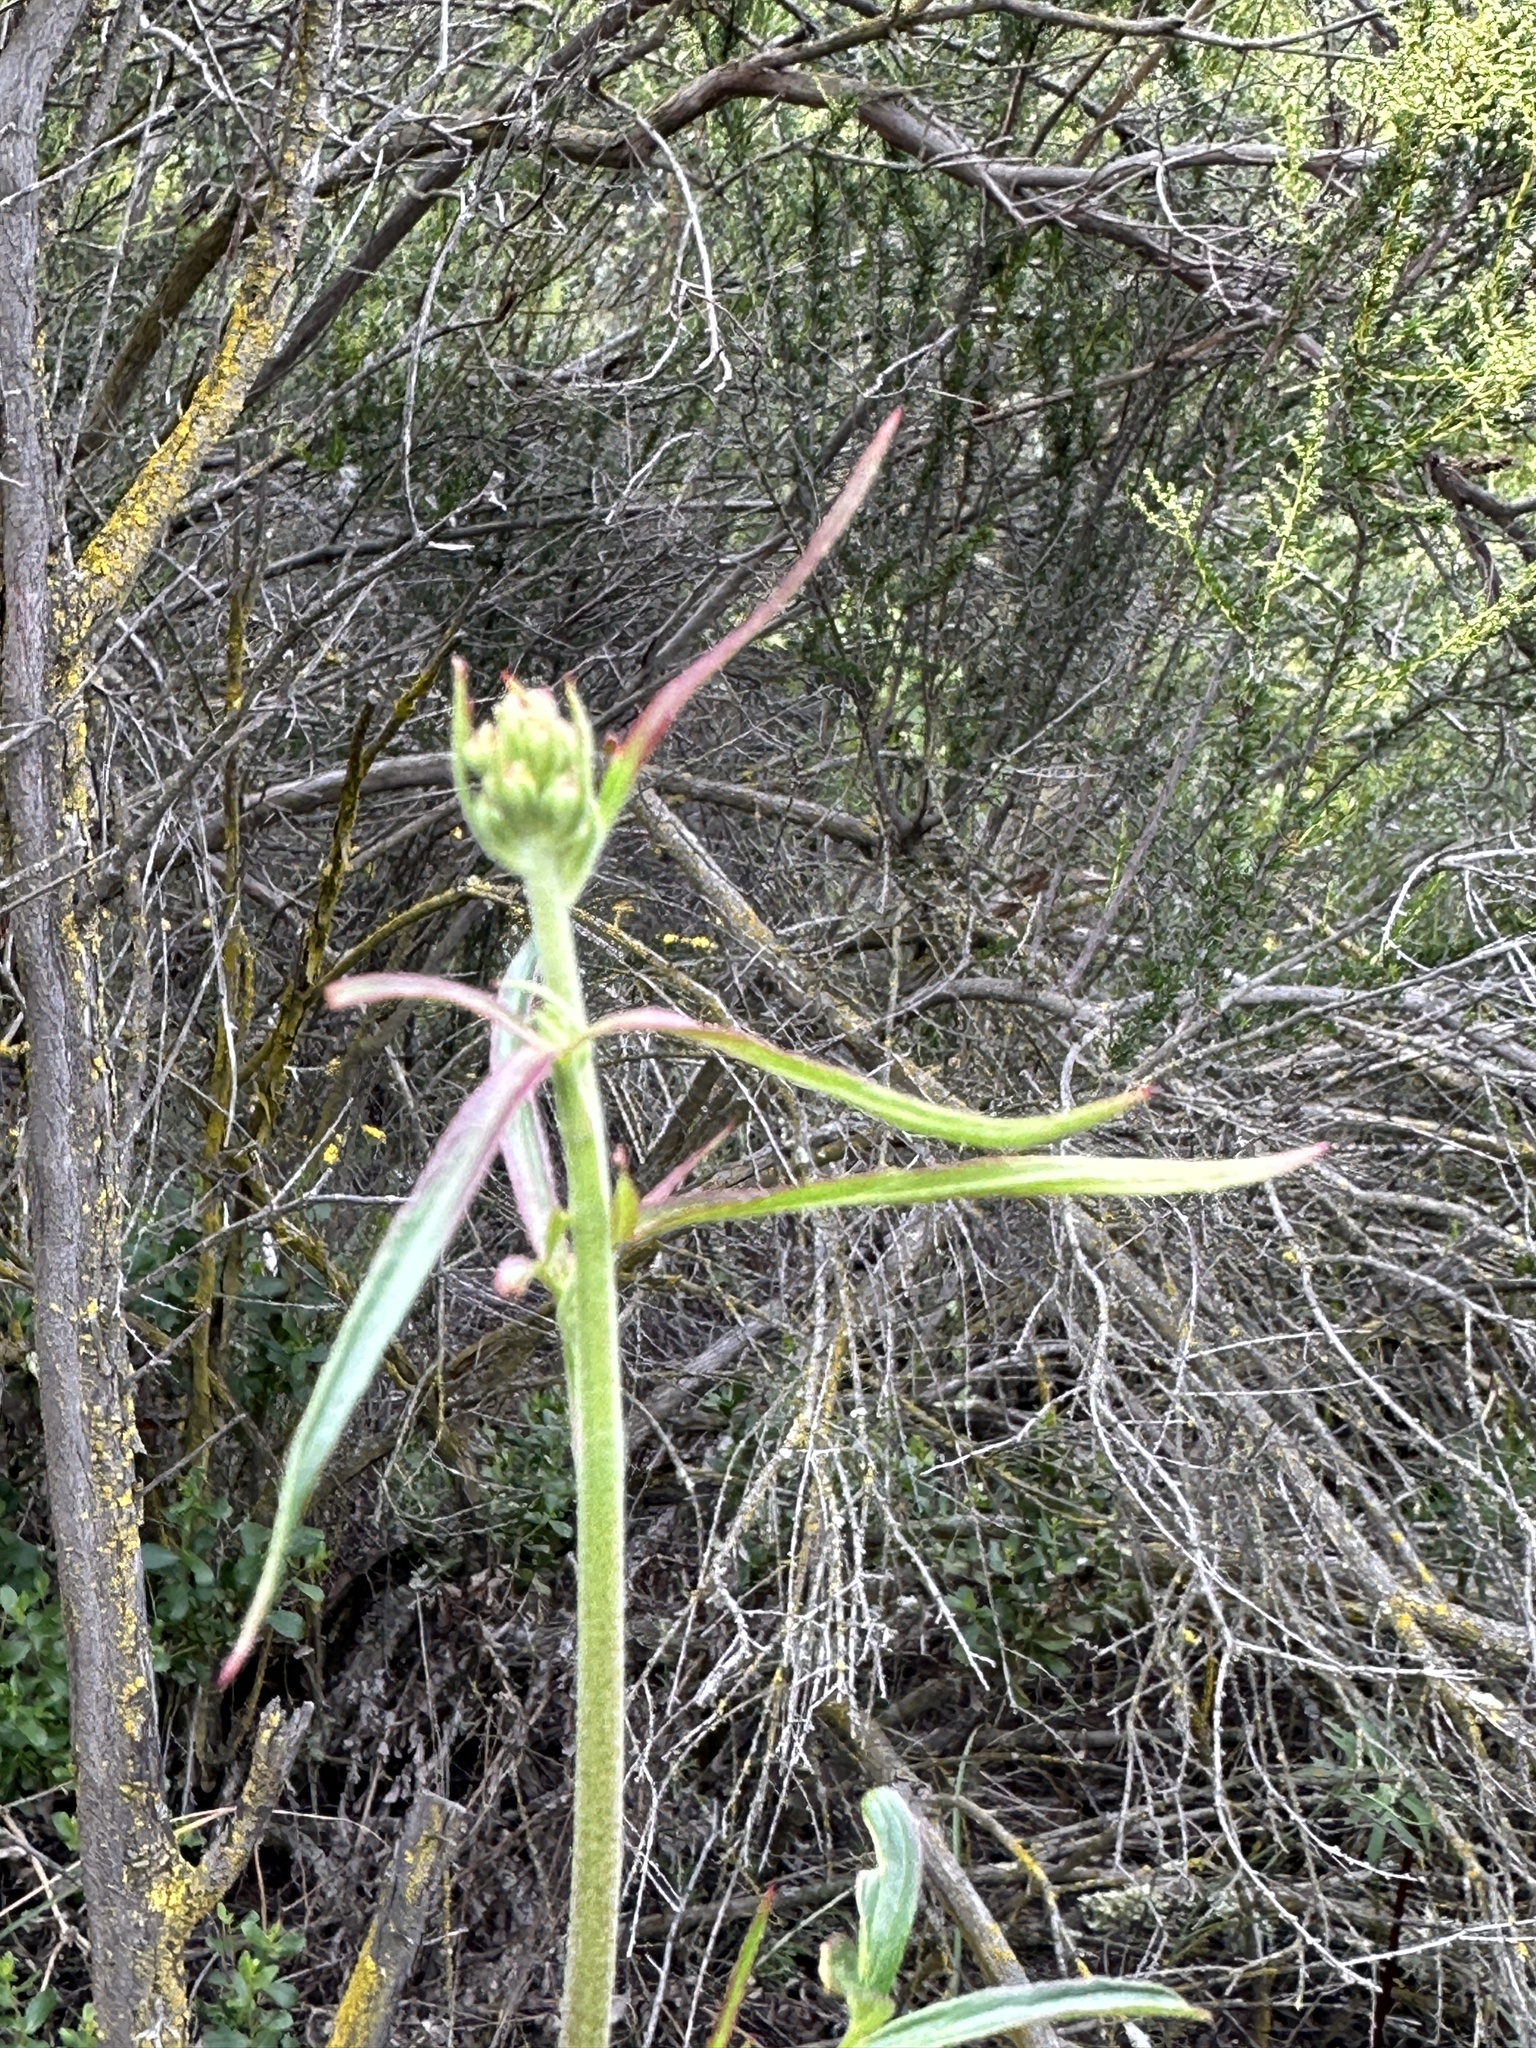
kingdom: Plantae
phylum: Tracheophyta
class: Magnoliopsida
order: Ranunculales
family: Ranunculaceae
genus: Delphinium
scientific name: Delphinium cardinale
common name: Scarlet larkspur
